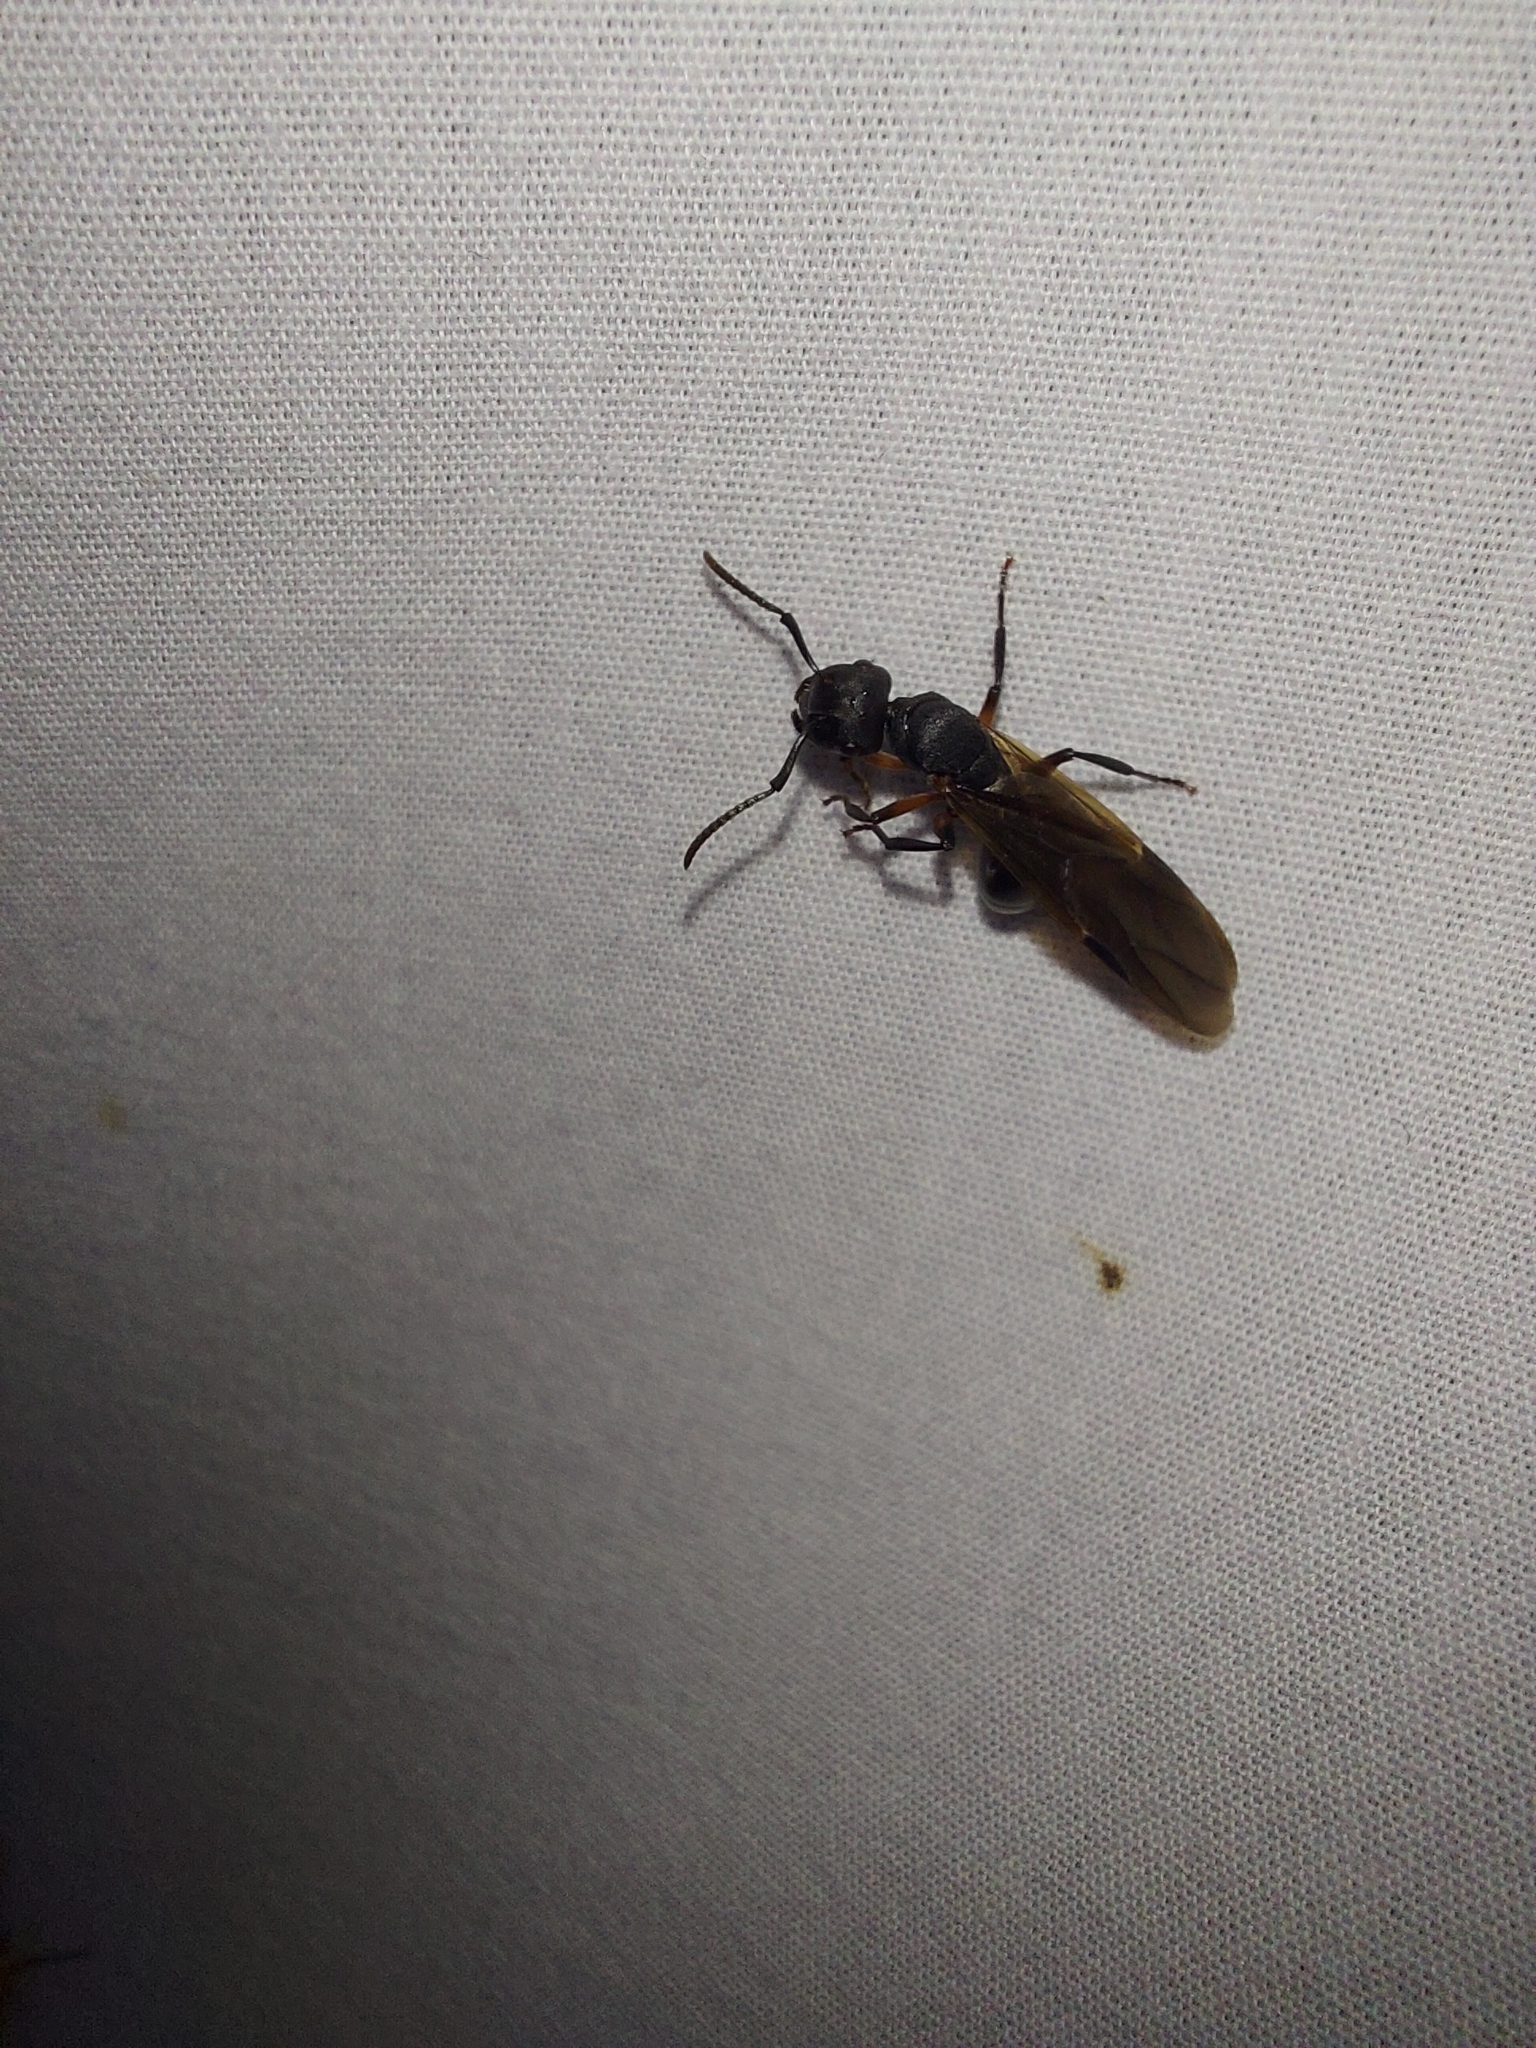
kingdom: Animalia
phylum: Arthropoda
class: Insecta
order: Hymenoptera
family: Formicidae
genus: Polyrhachis
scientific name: Polyrhachis femorata
